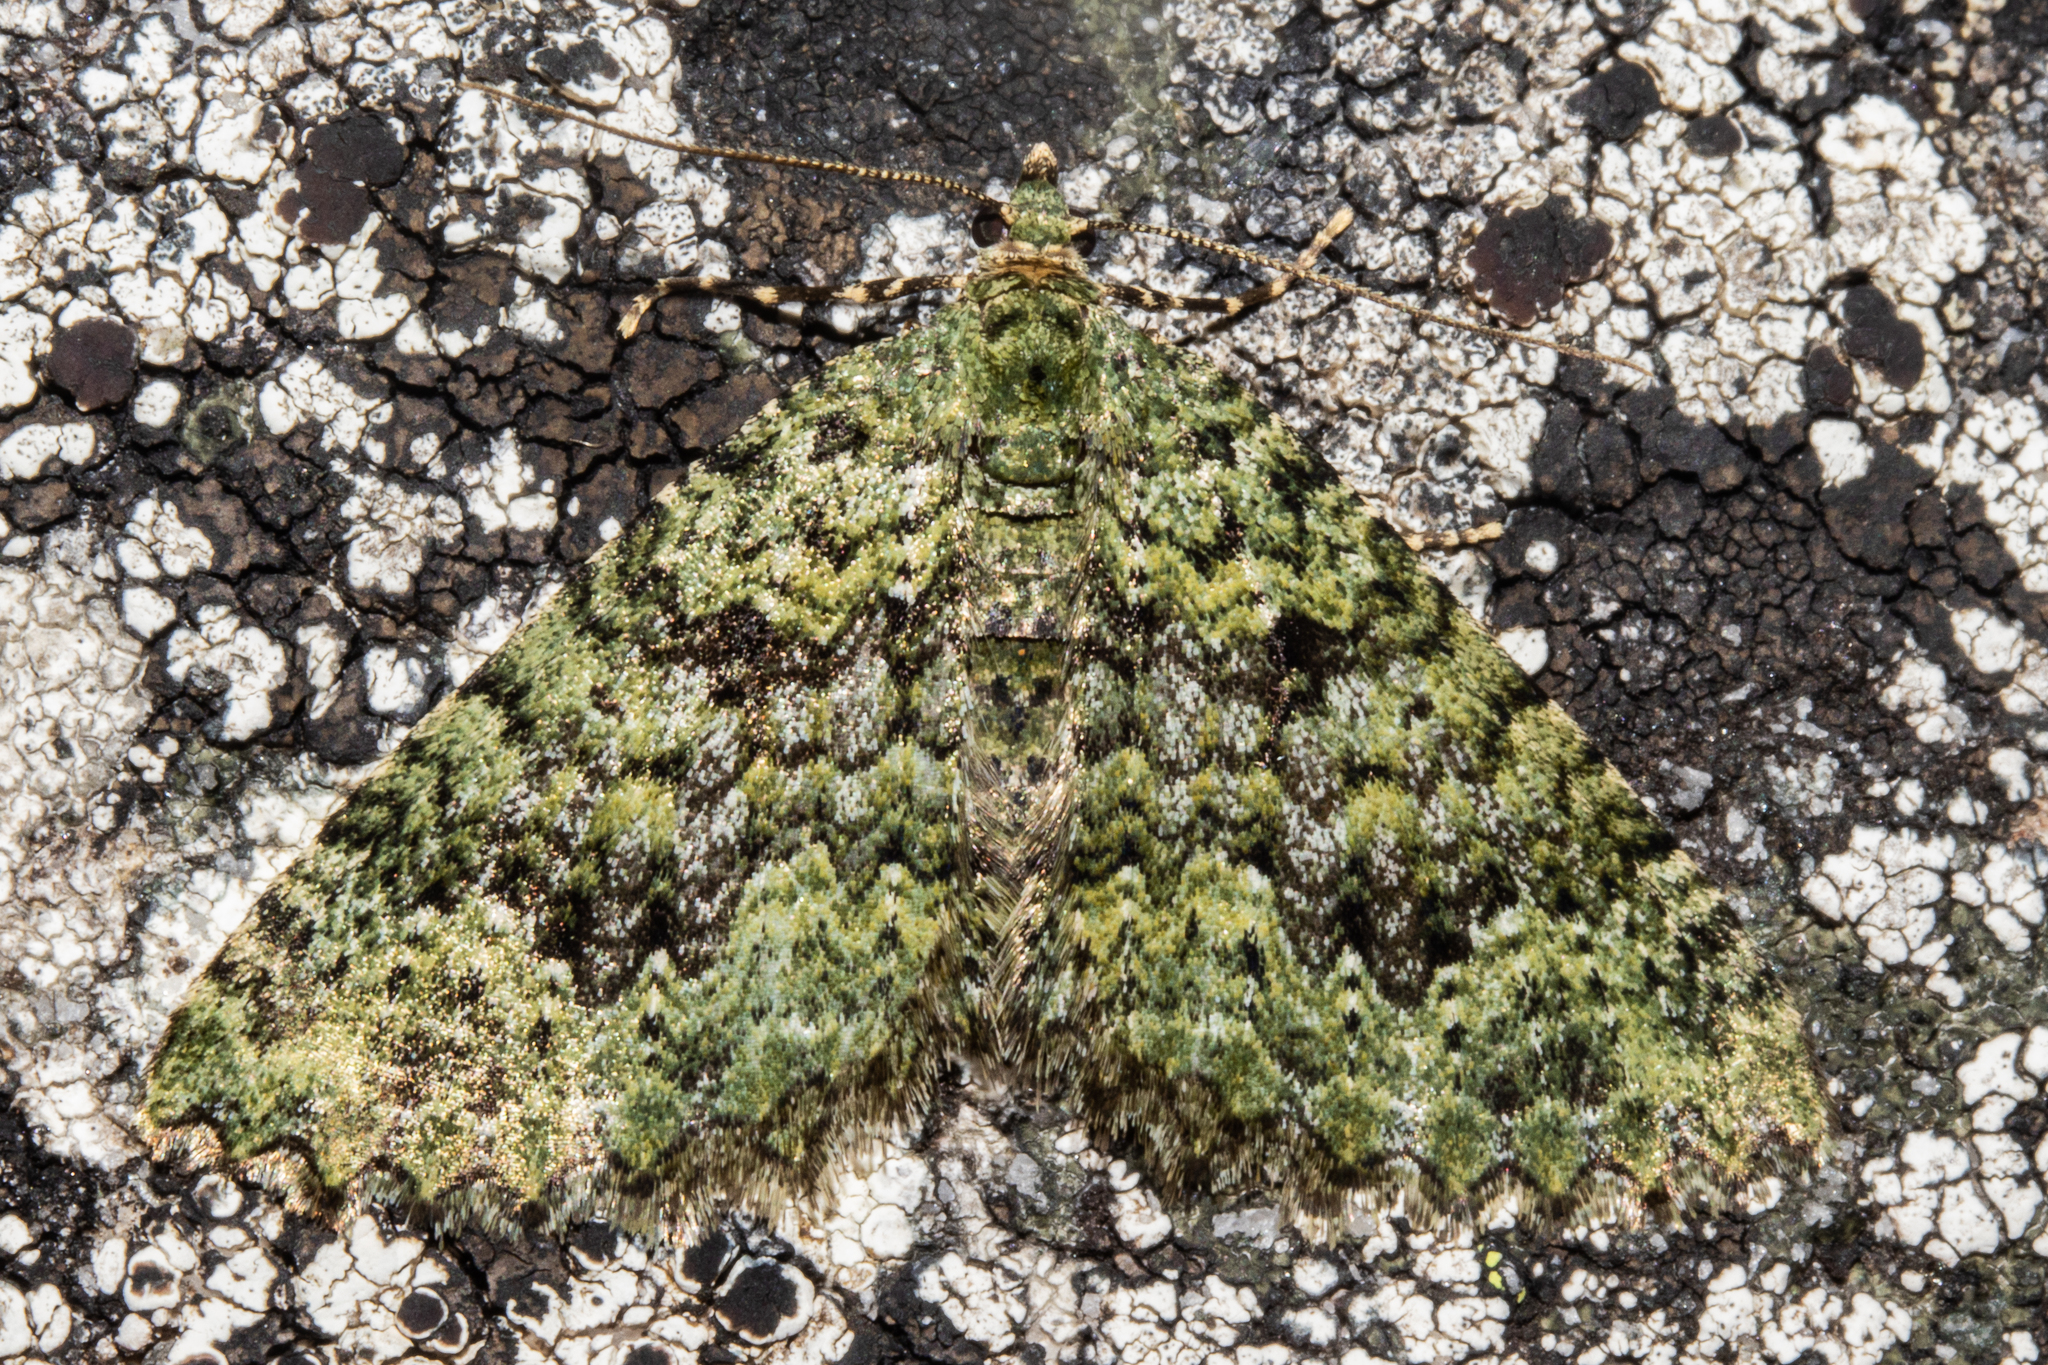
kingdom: Animalia
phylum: Arthropoda
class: Insecta
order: Lepidoptera
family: Geometridae
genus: Austrocidaria
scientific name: Austrocidaria umbrosa
